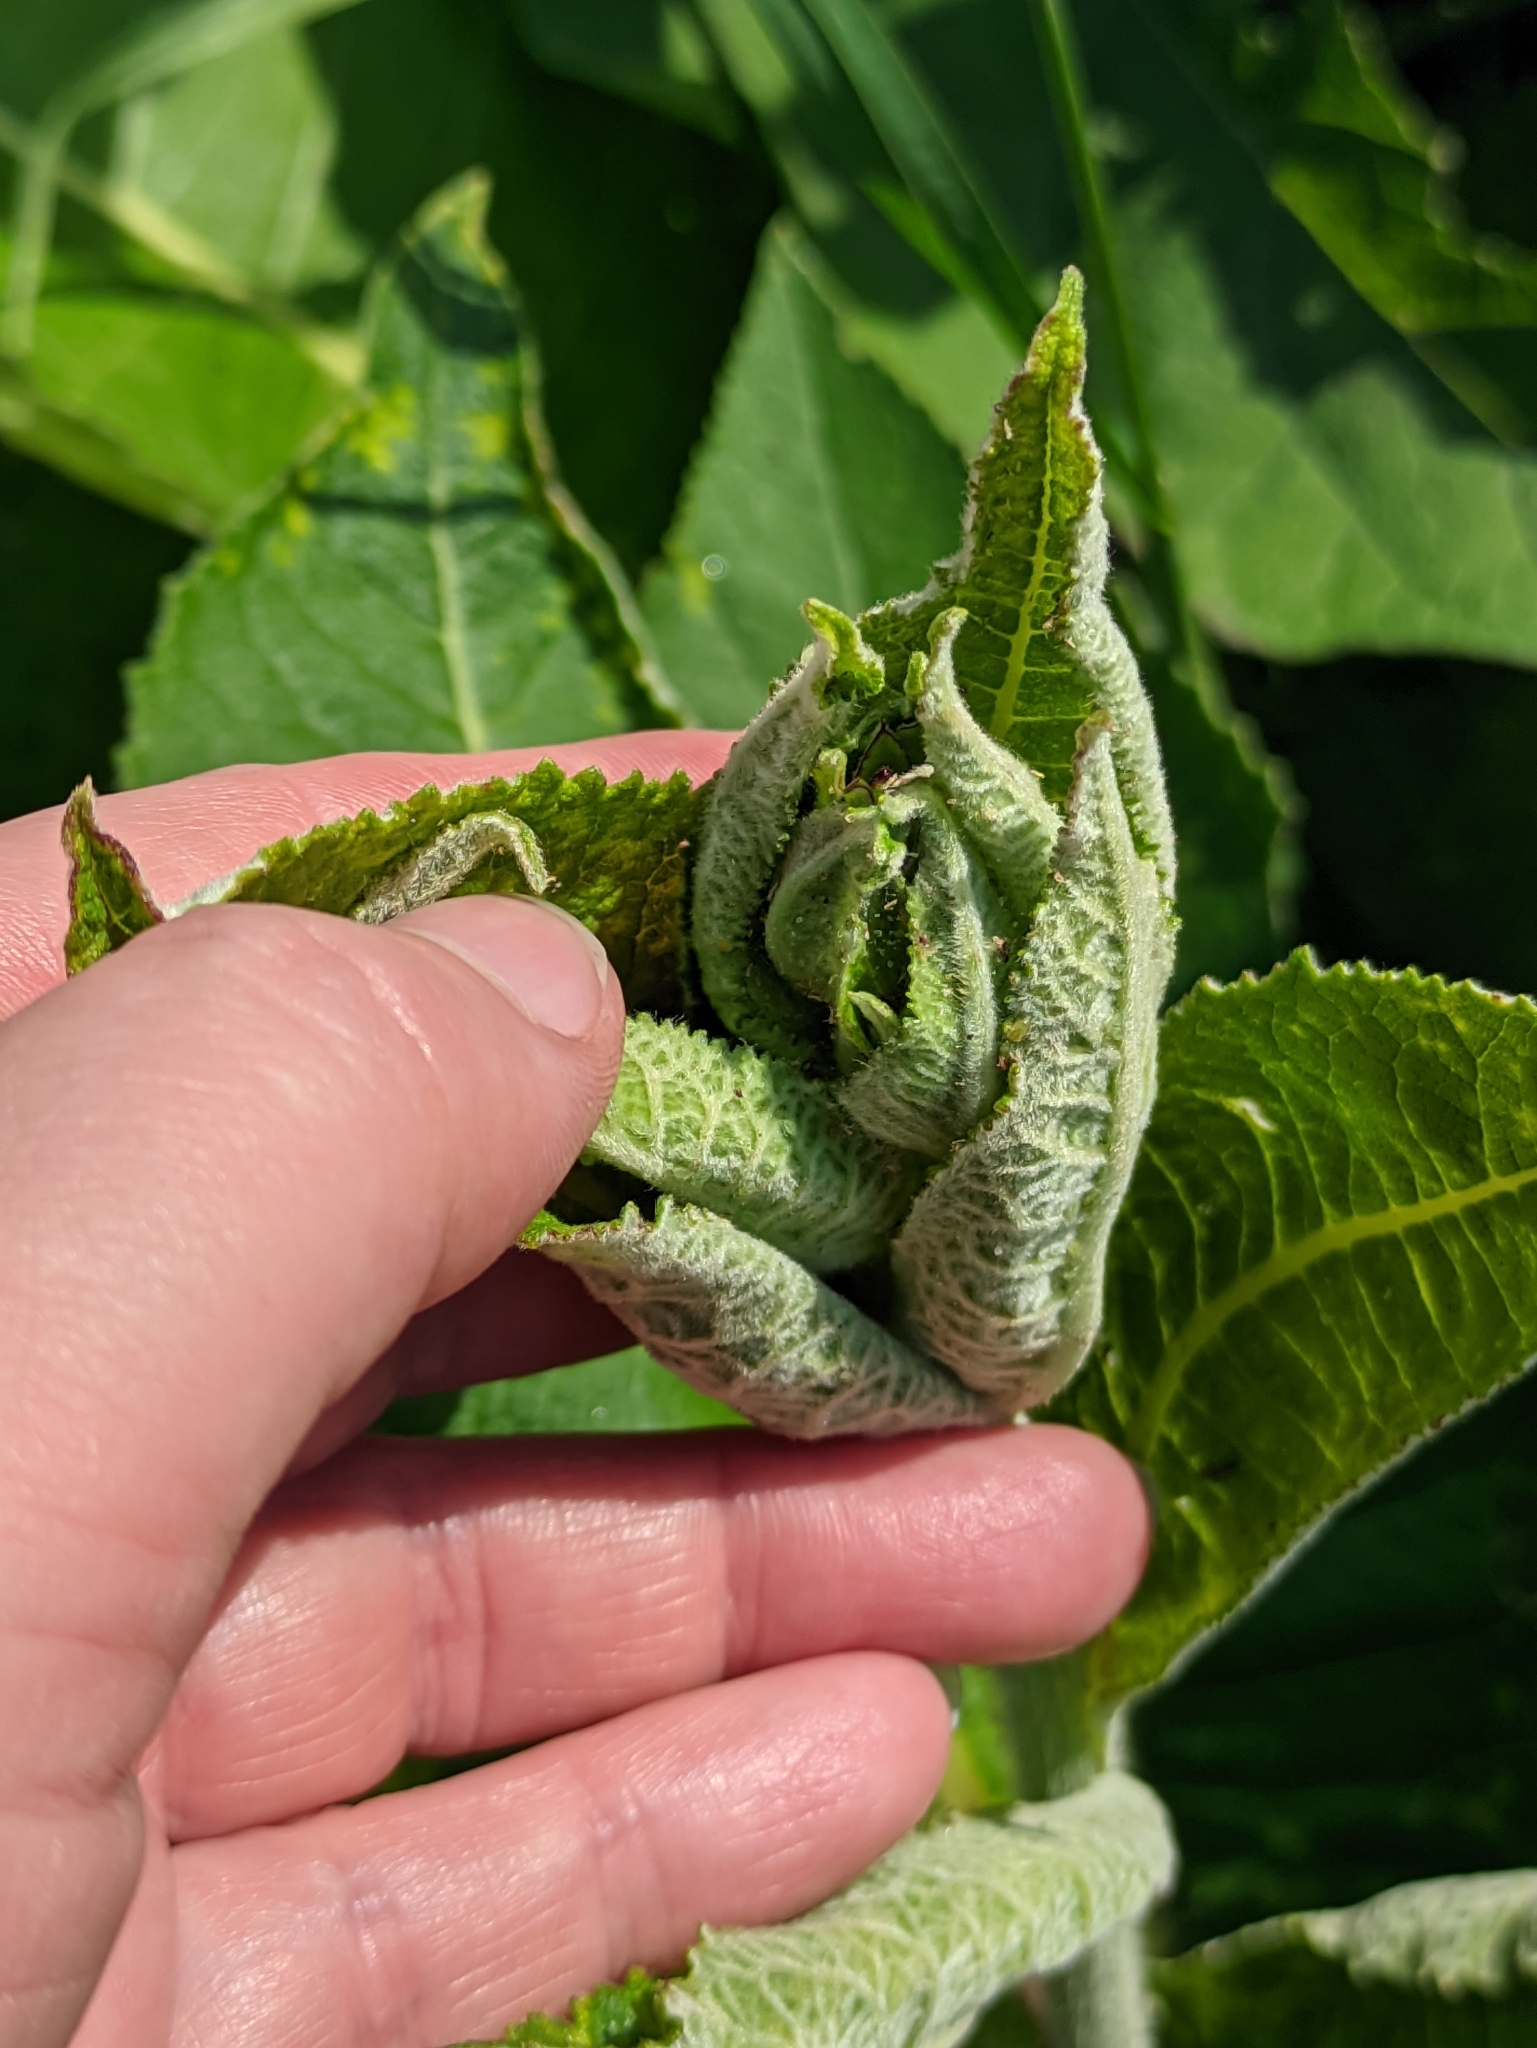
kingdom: Plantae
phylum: Tracheophyta
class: Magnoliopsida
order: Asterales
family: Asteraceae
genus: Inula
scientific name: Inula helenium
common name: Elecampane
